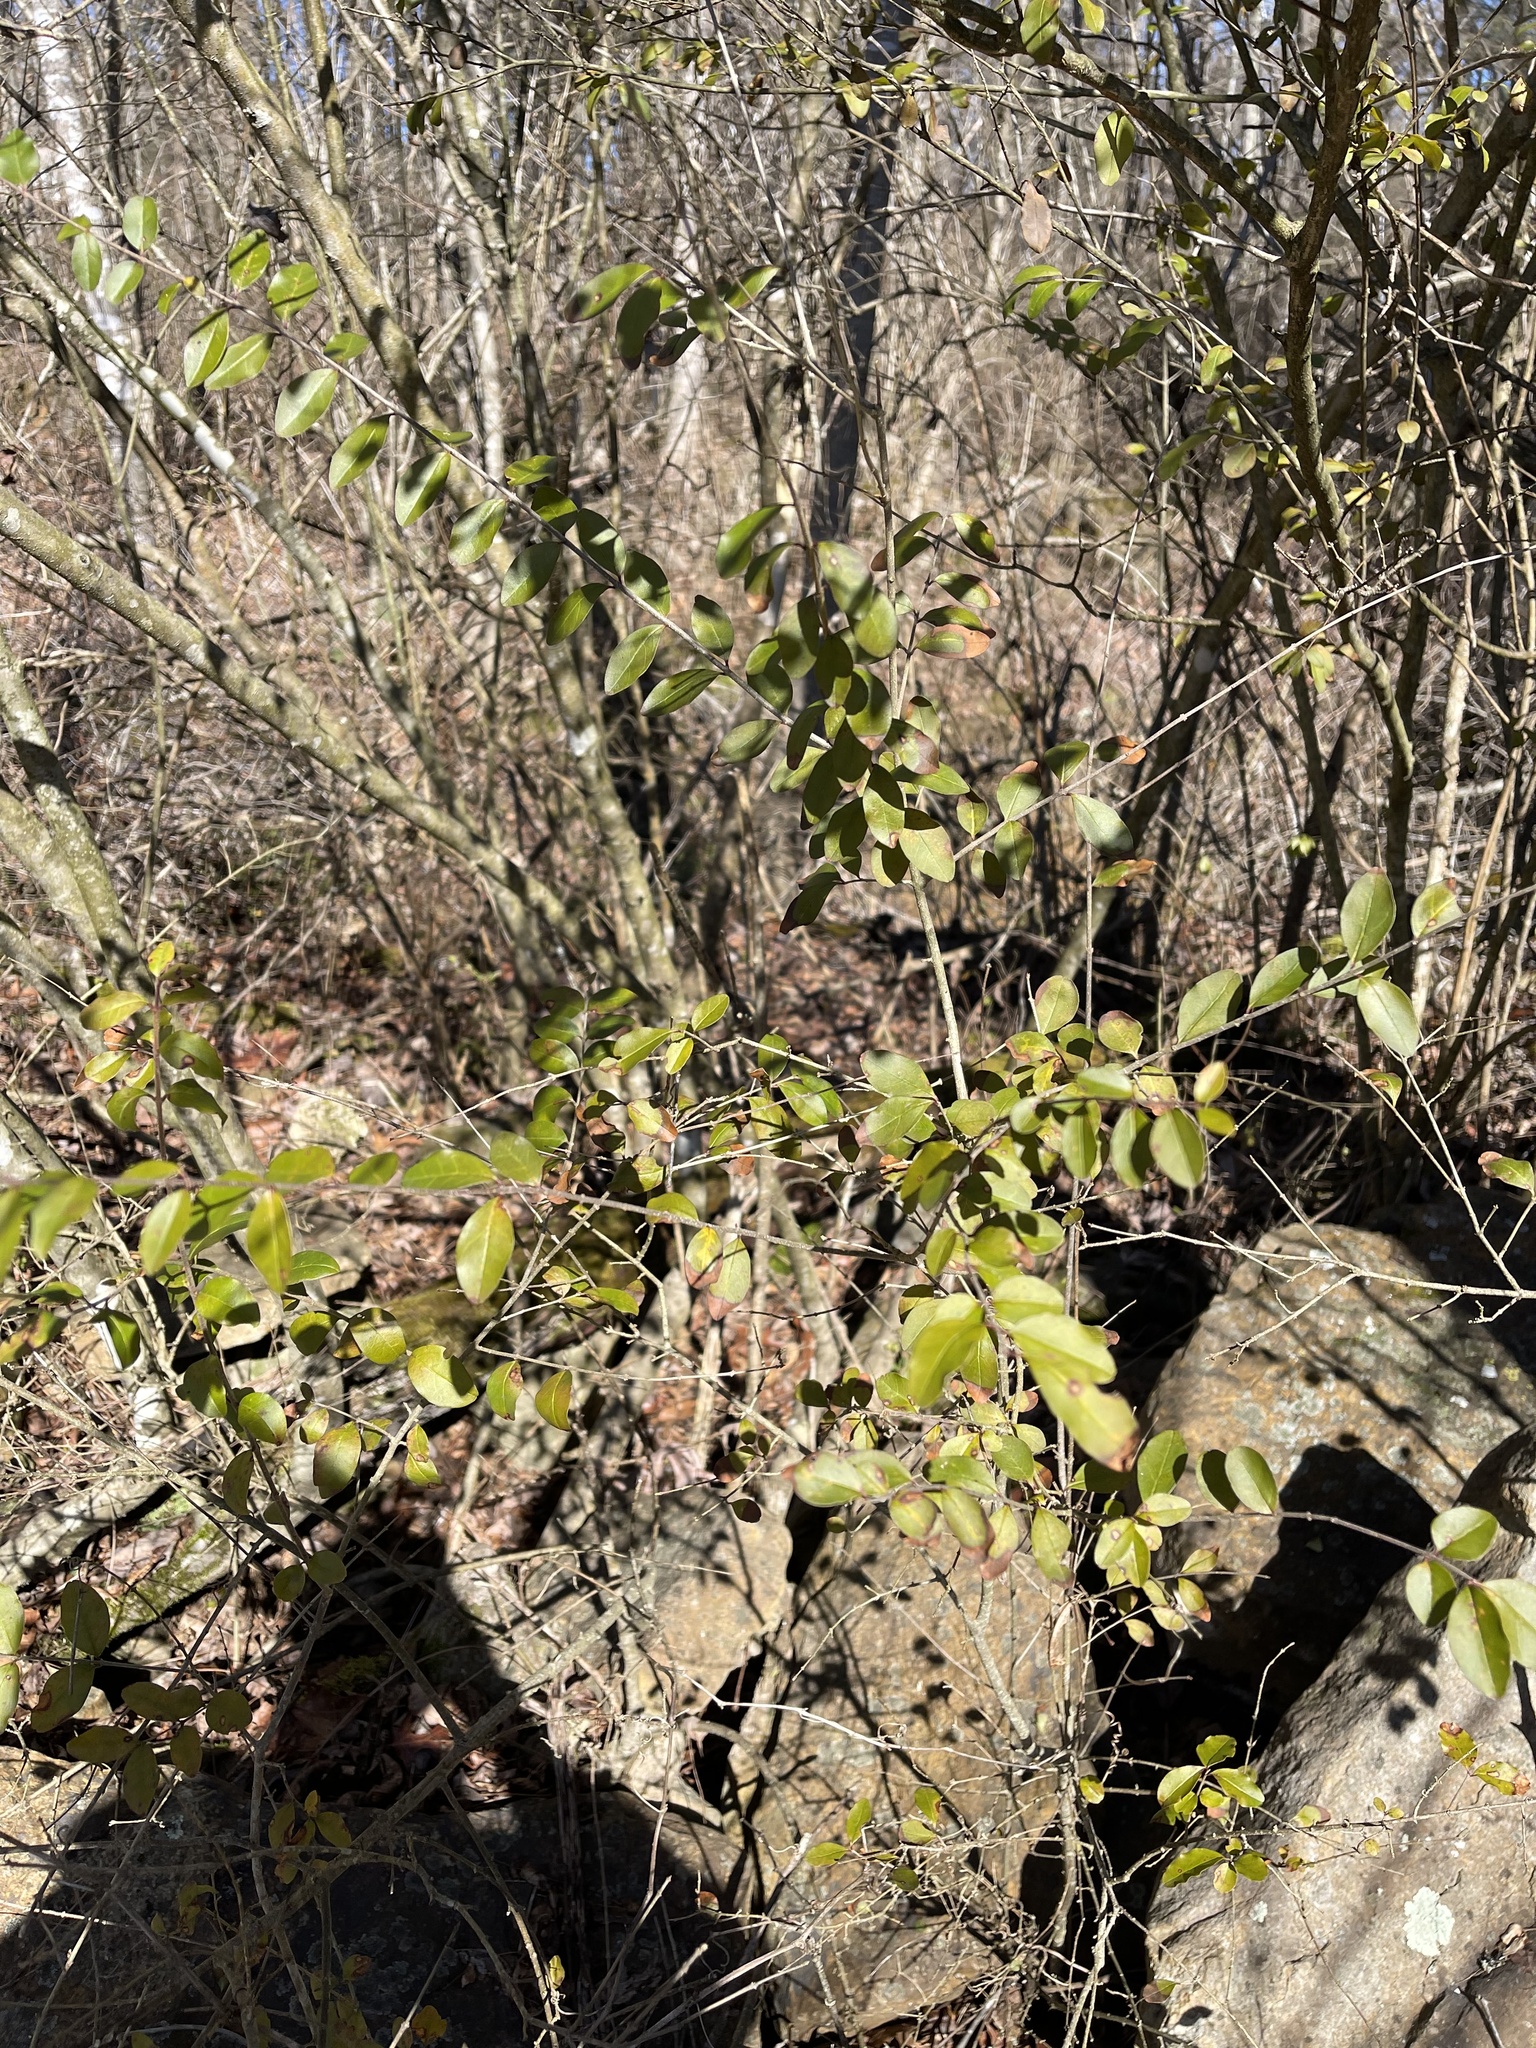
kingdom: Plantae
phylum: Tracheophyta
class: Magnoliopsida
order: Lamiales
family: Oleaceae
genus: Ligustrum
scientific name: Ligustrum sinense
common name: Chinese privet
